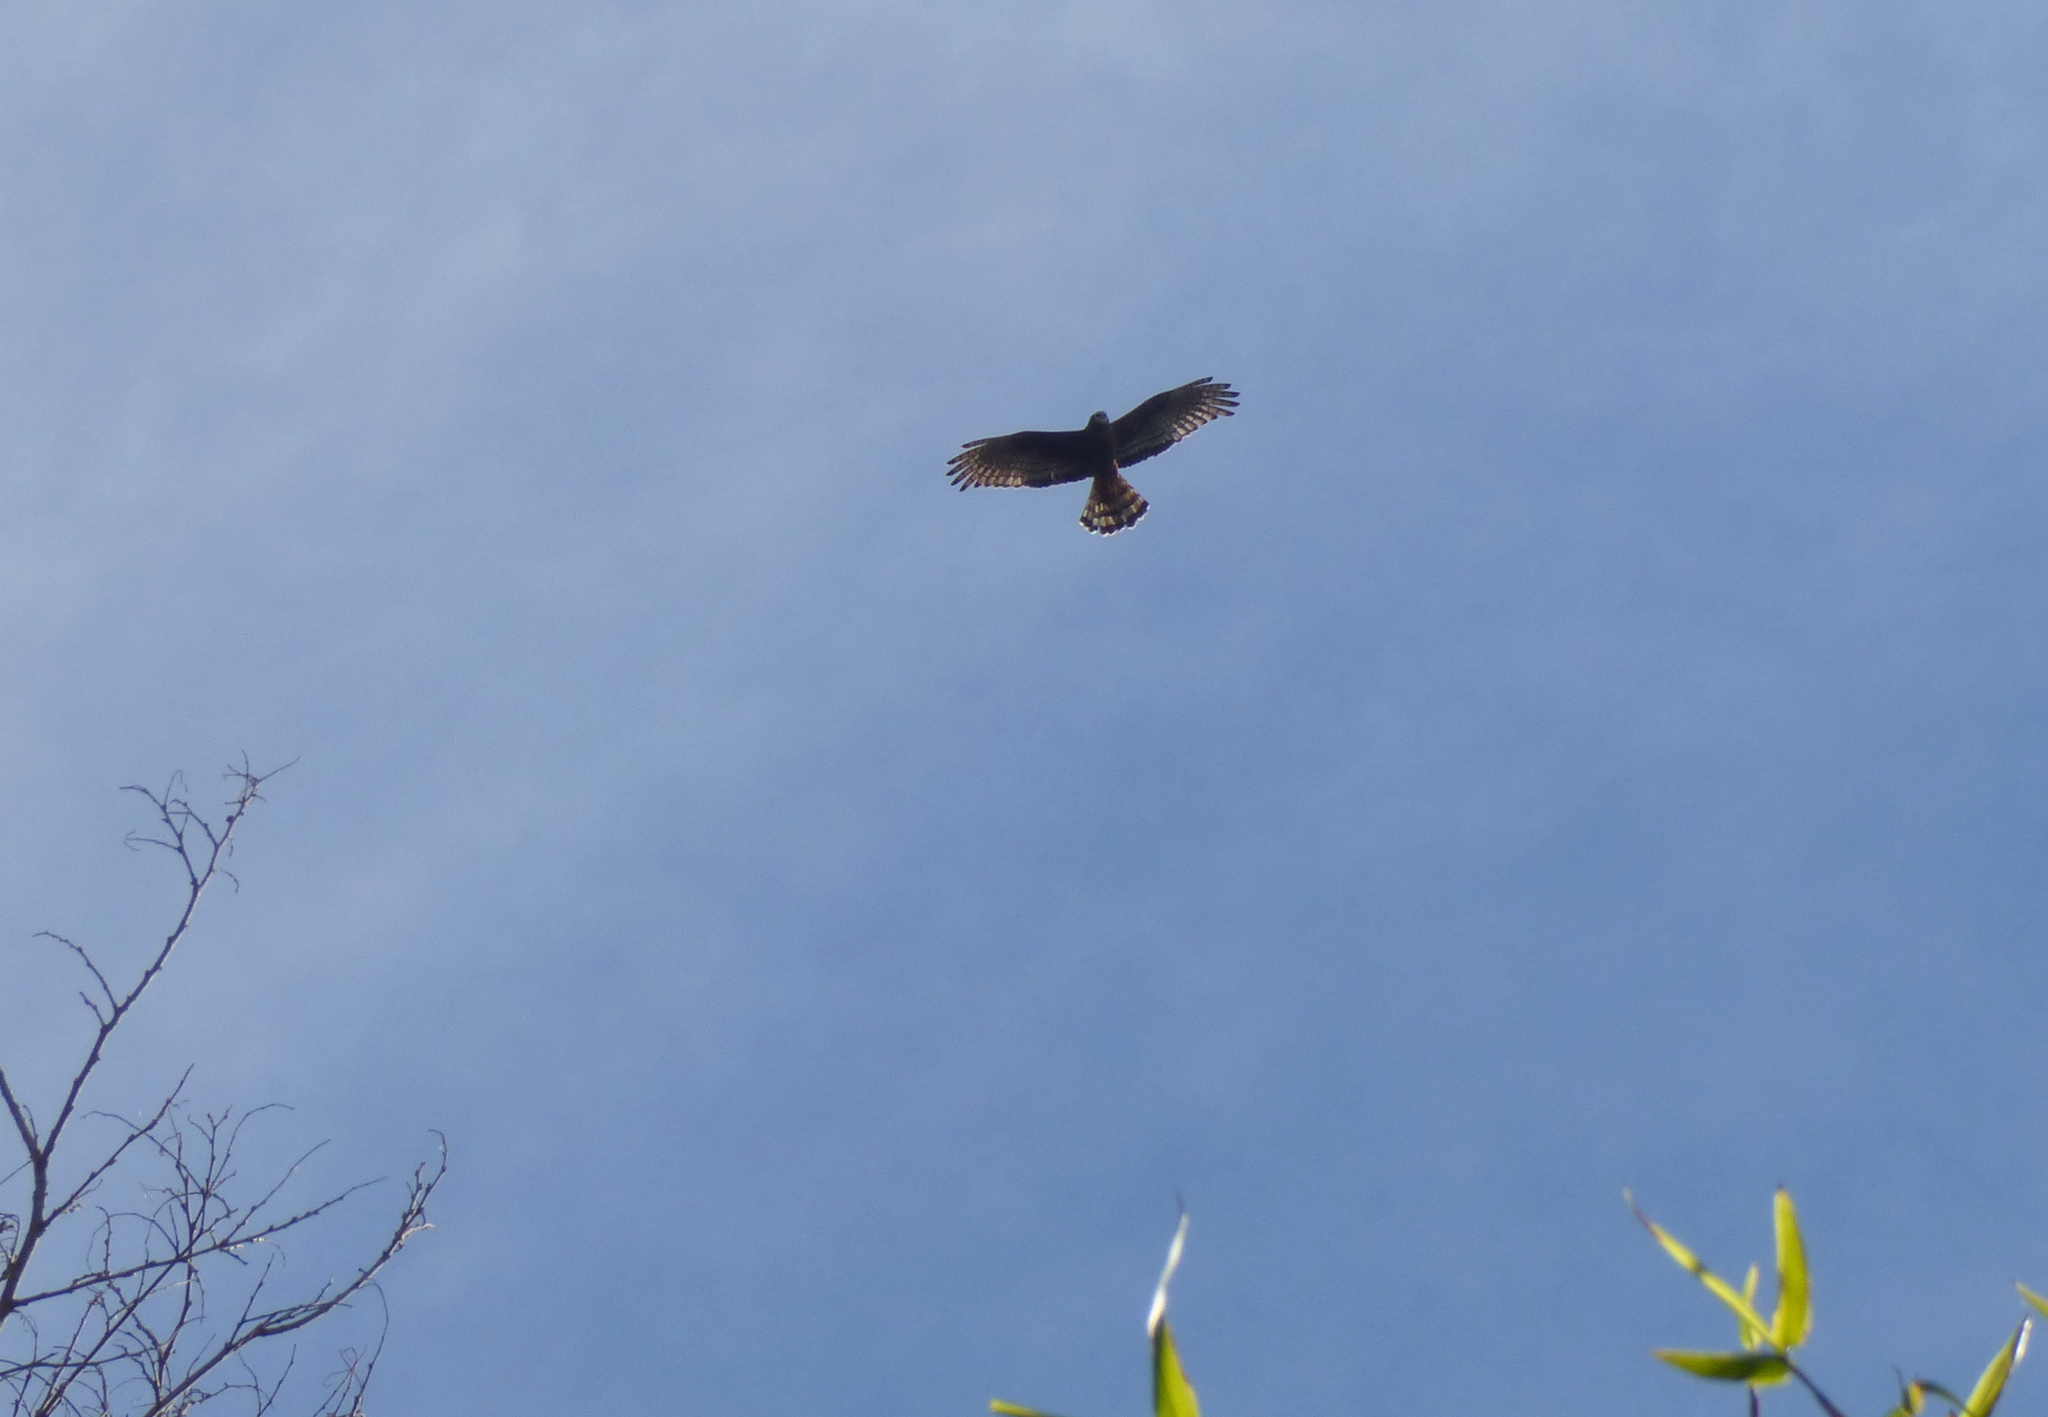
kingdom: Animalia
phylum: Chordata
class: Aves
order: Accipitriformes
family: Accipitridae
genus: Circus
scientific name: Circus buffoni
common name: Long-winged harrier
